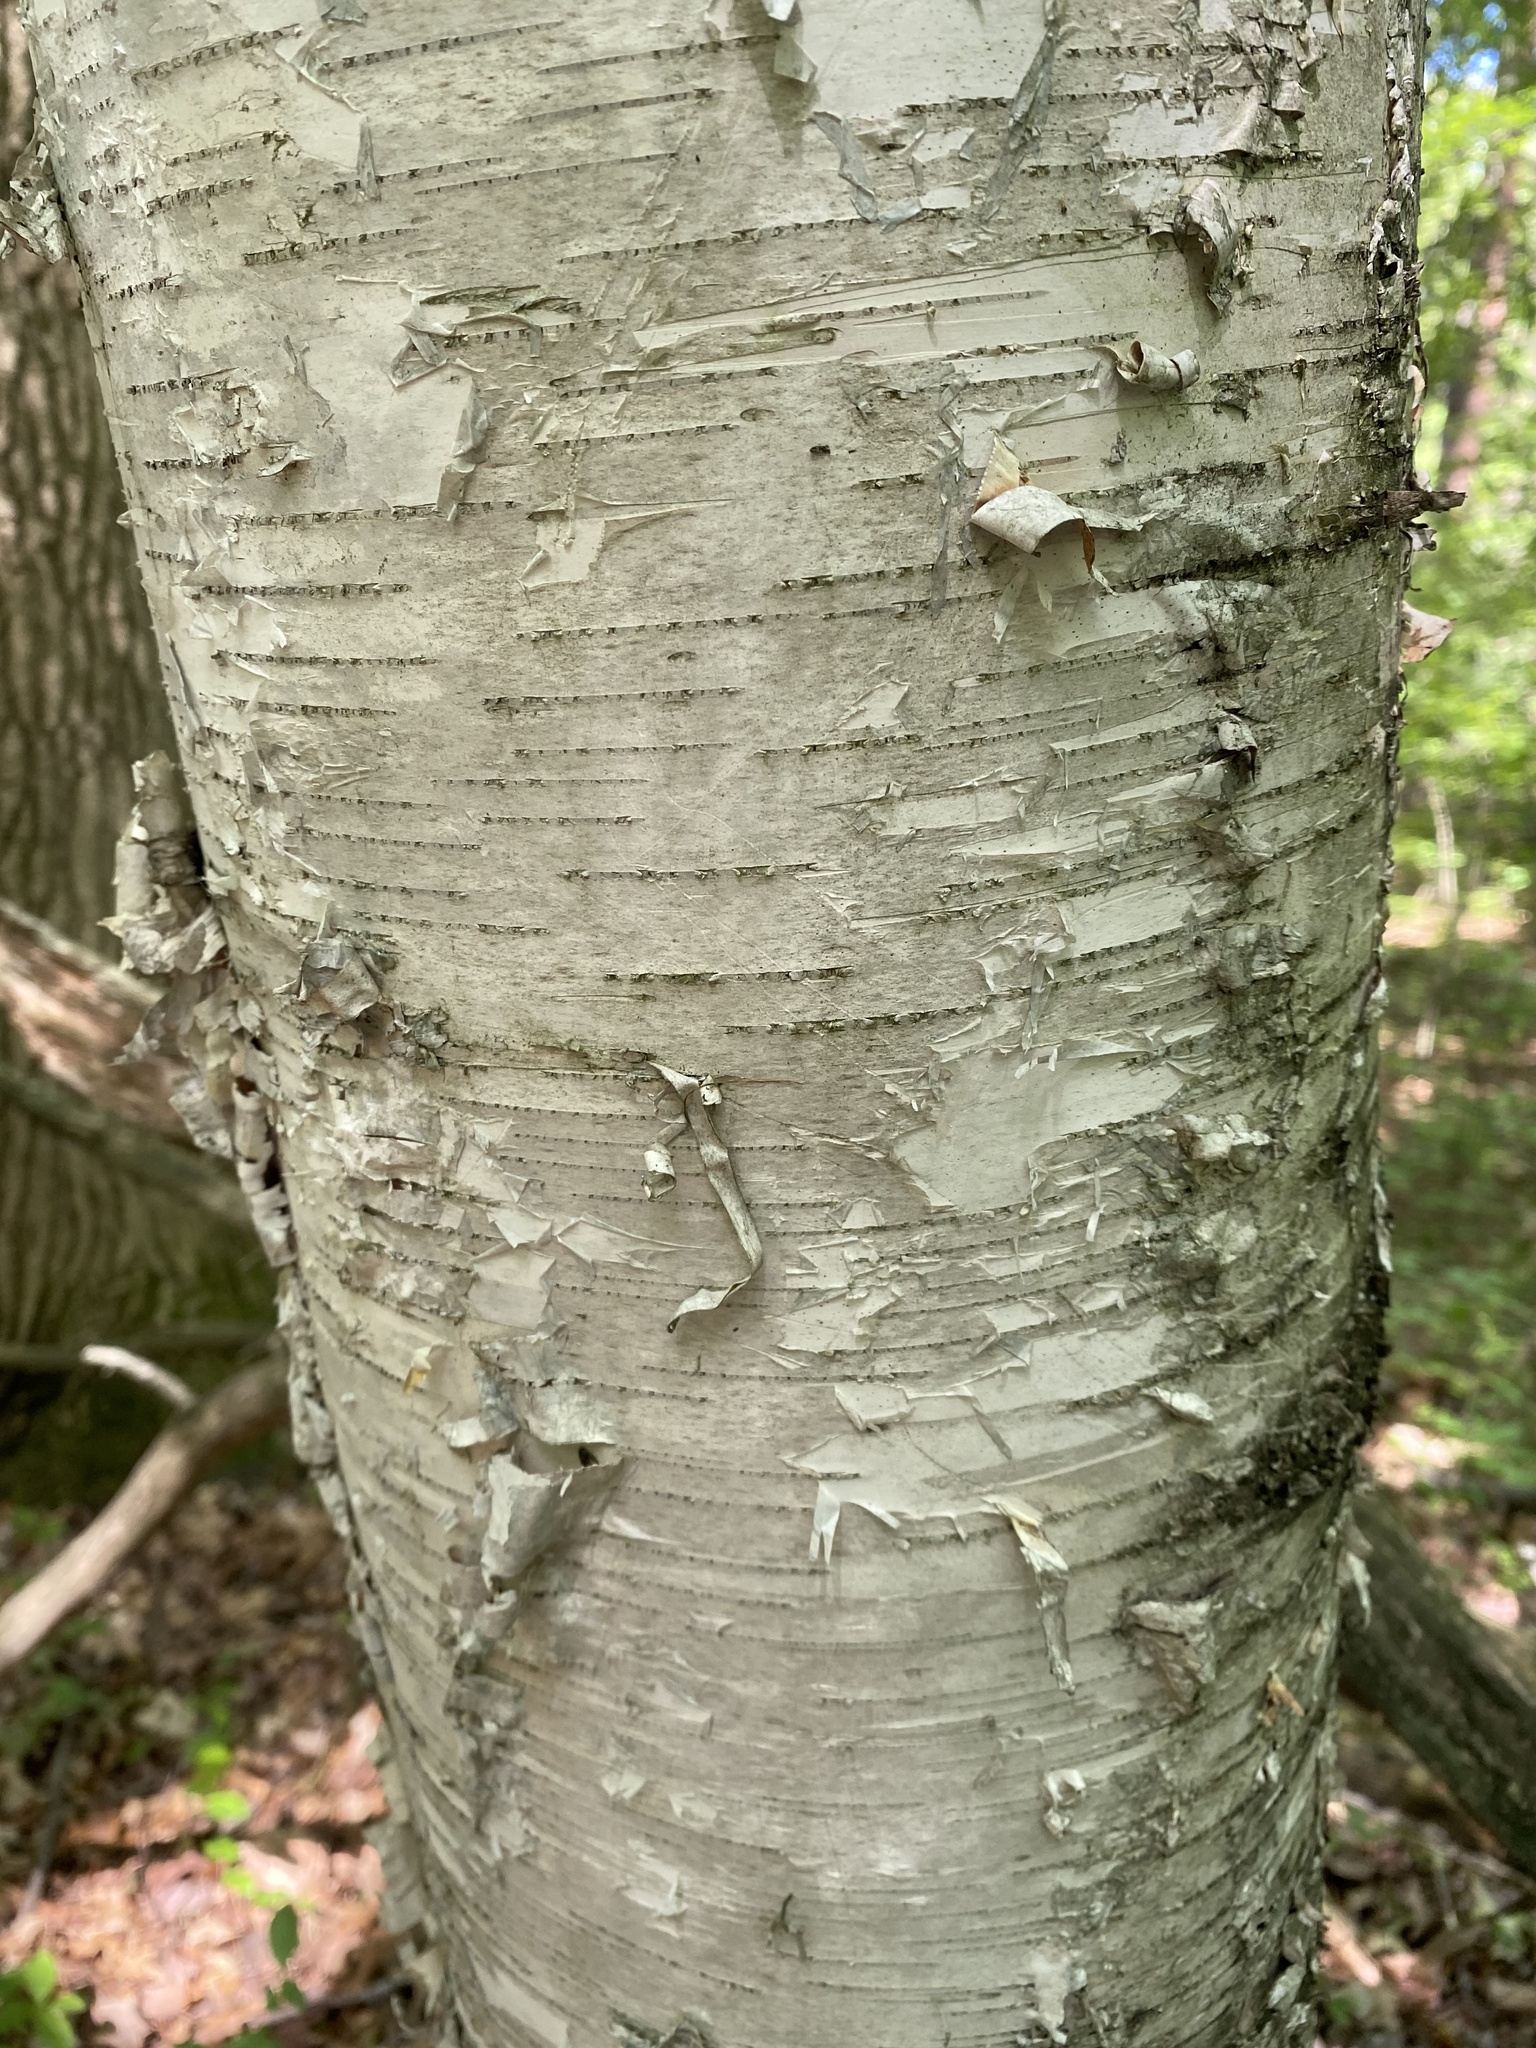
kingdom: Plantae
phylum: Tracheophyta
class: Magnoliopsida
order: Fagales
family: Betulaceae
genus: Betula
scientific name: Betula papyrifera
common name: Paper birch
